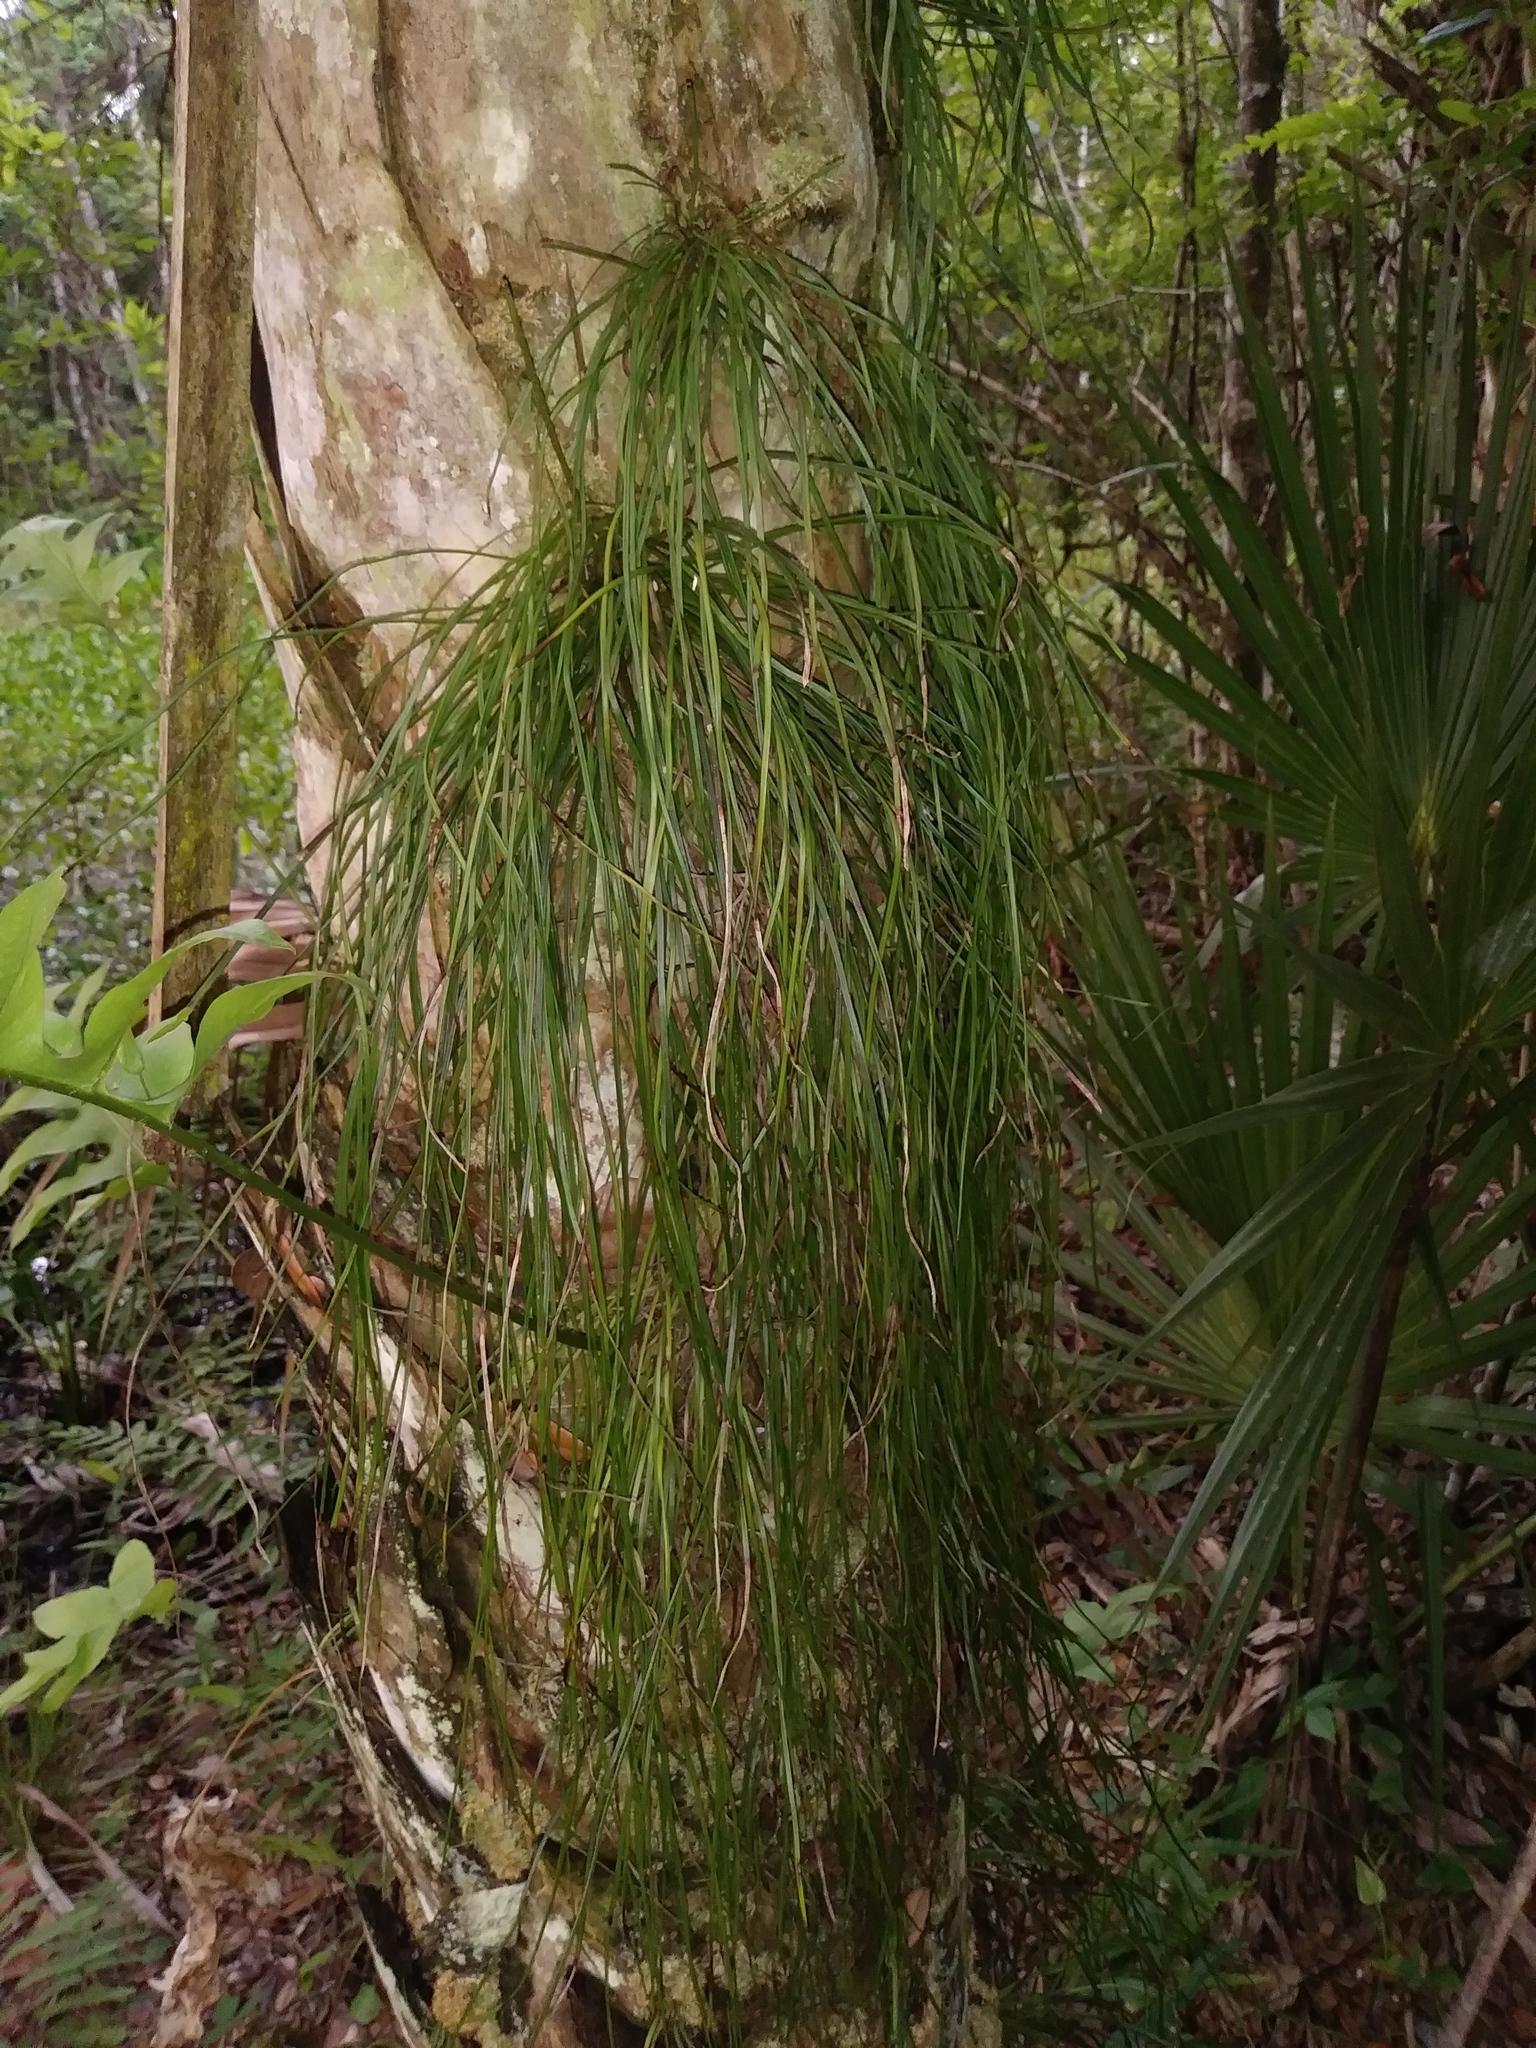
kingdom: Plantae
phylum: Tracheophyta
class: Polypodiopsida
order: Polypodiales
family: Pteridaceae
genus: Vittaria
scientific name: Vittaria lineata
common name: Shoestring fern
